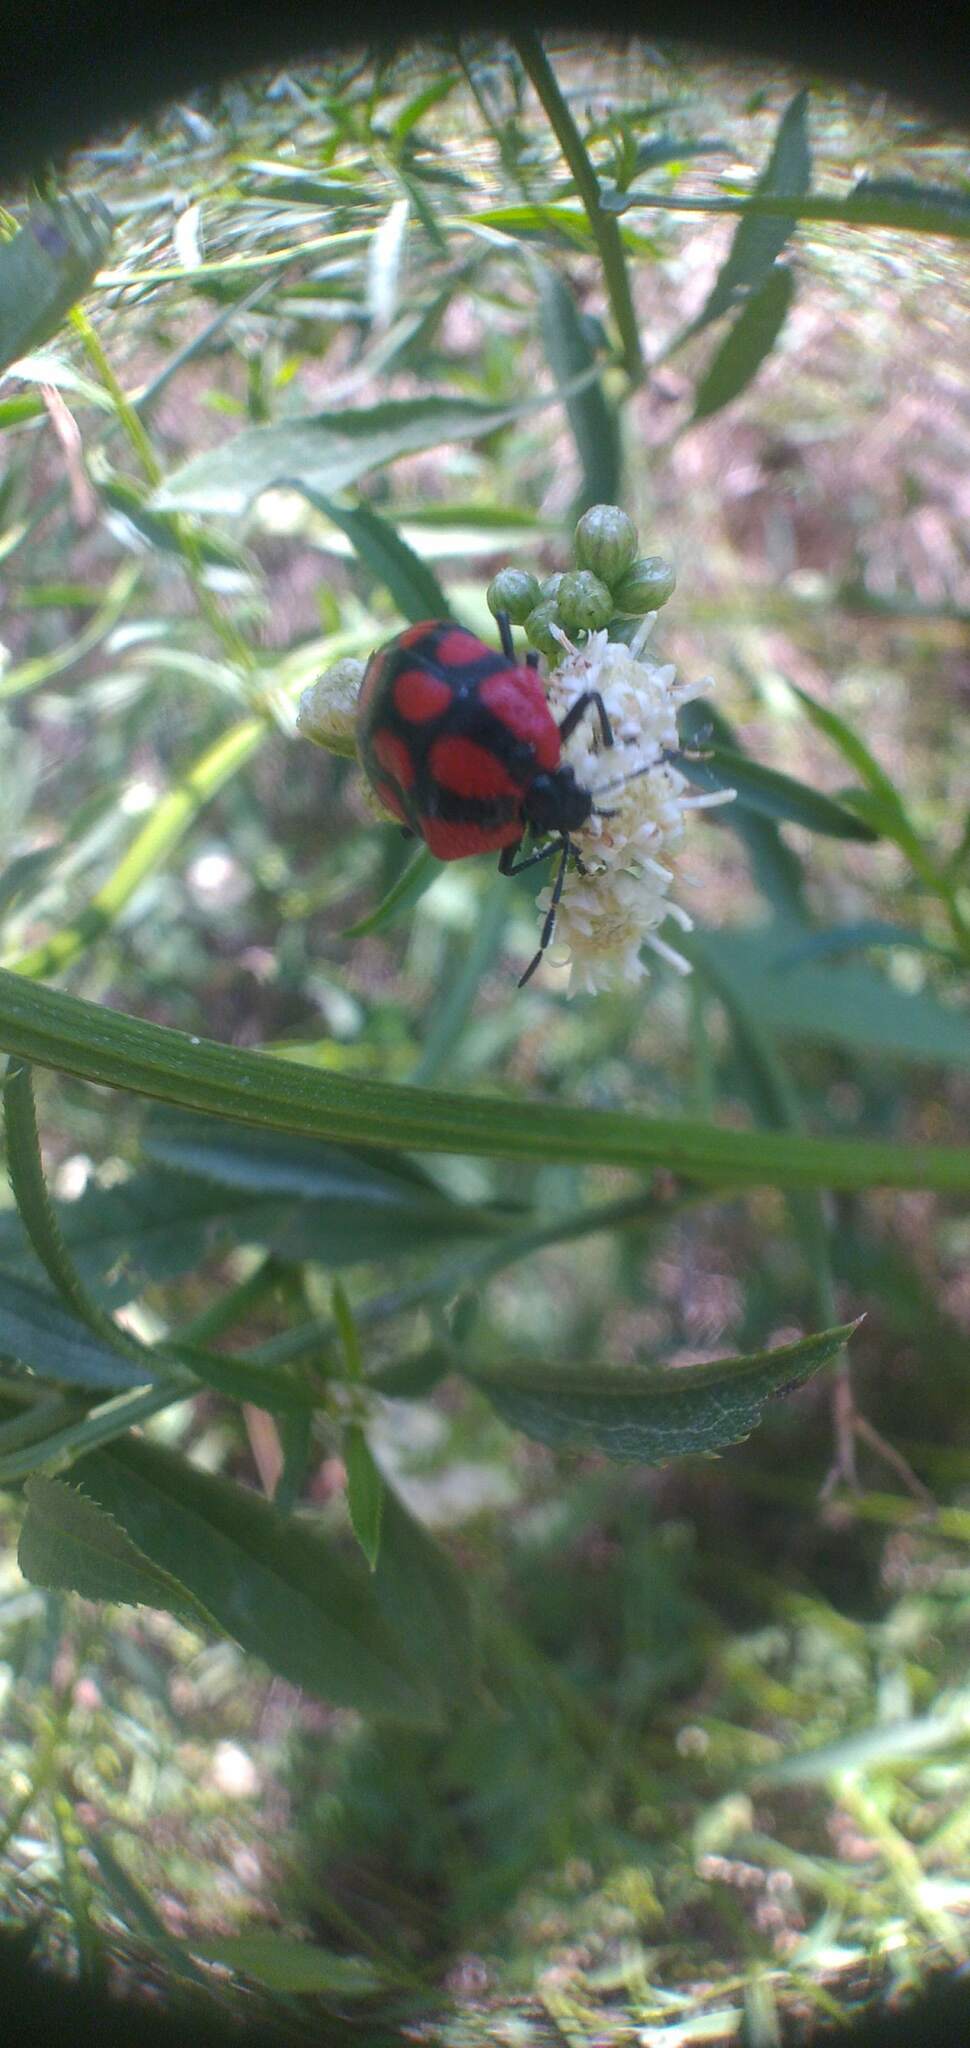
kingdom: Animalia
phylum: Arthropoda
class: Insecta
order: Hemiptera
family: Pentatomidae
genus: Stiretrus
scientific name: Stiretrus
